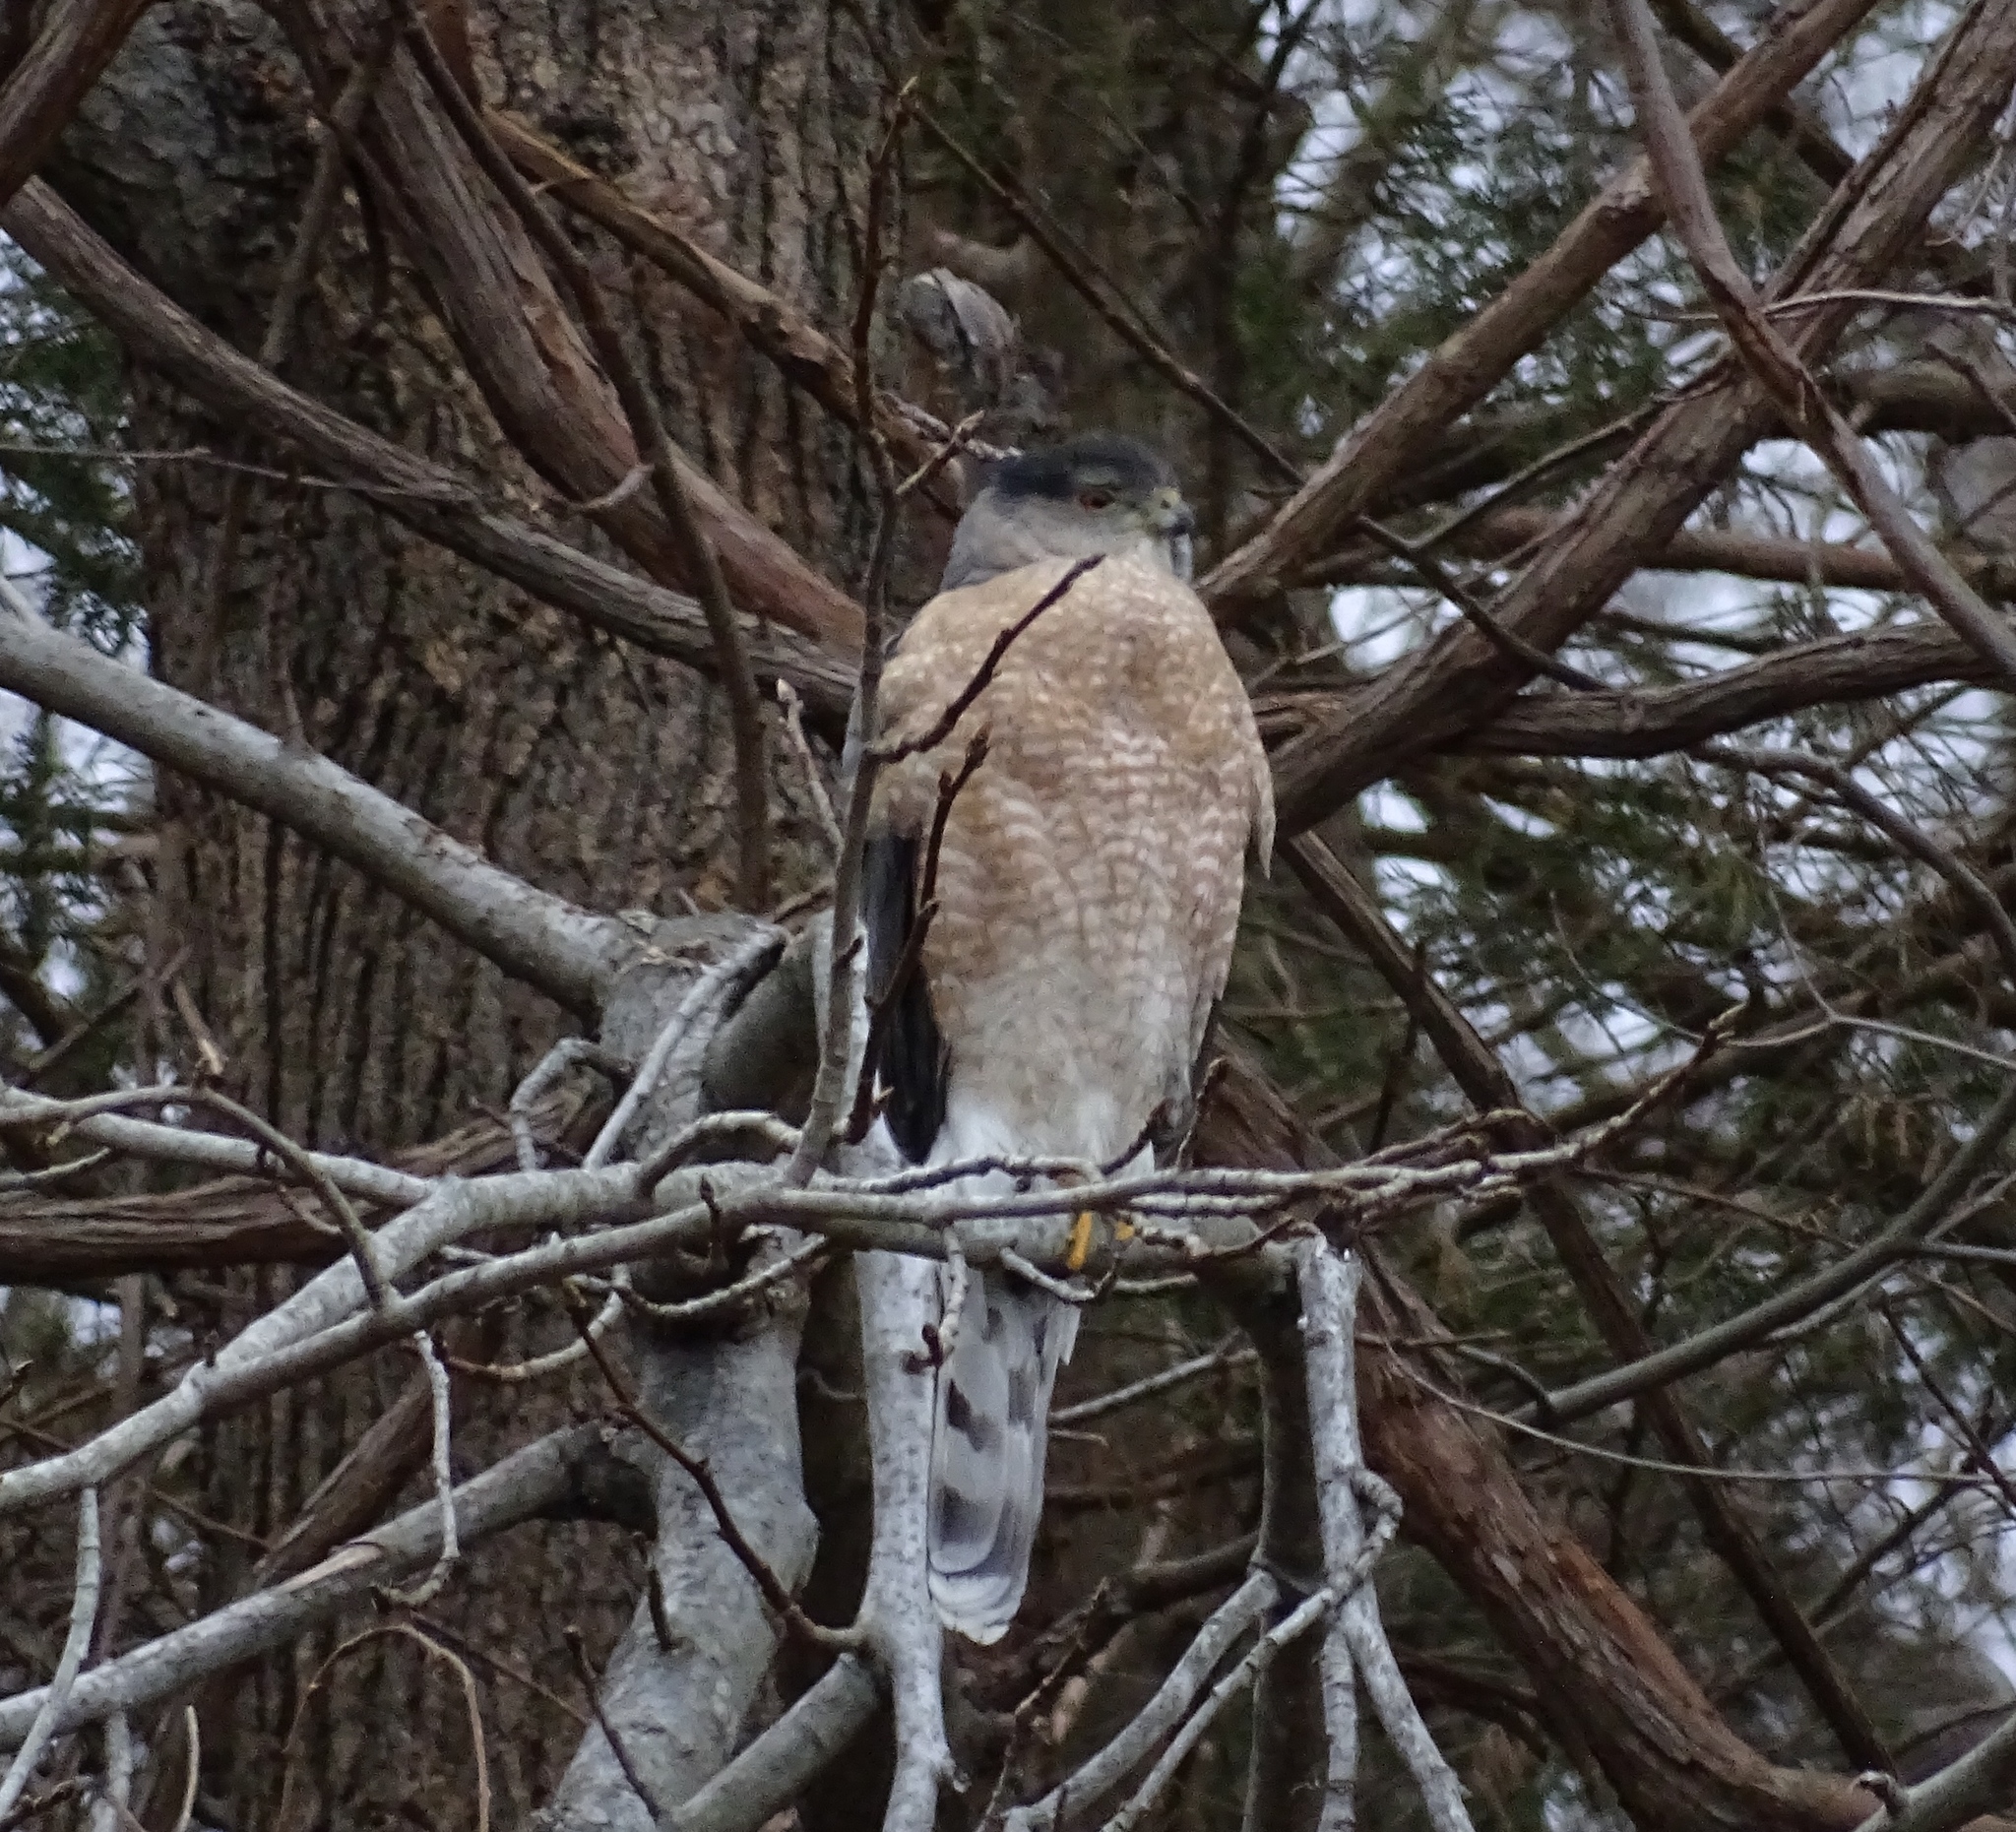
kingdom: Animalia
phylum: Chordata
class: Aves
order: Accipitriformes
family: Accipitridae
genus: Accipiter
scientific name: Accipiter cooperii
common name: Cooper's hawk
